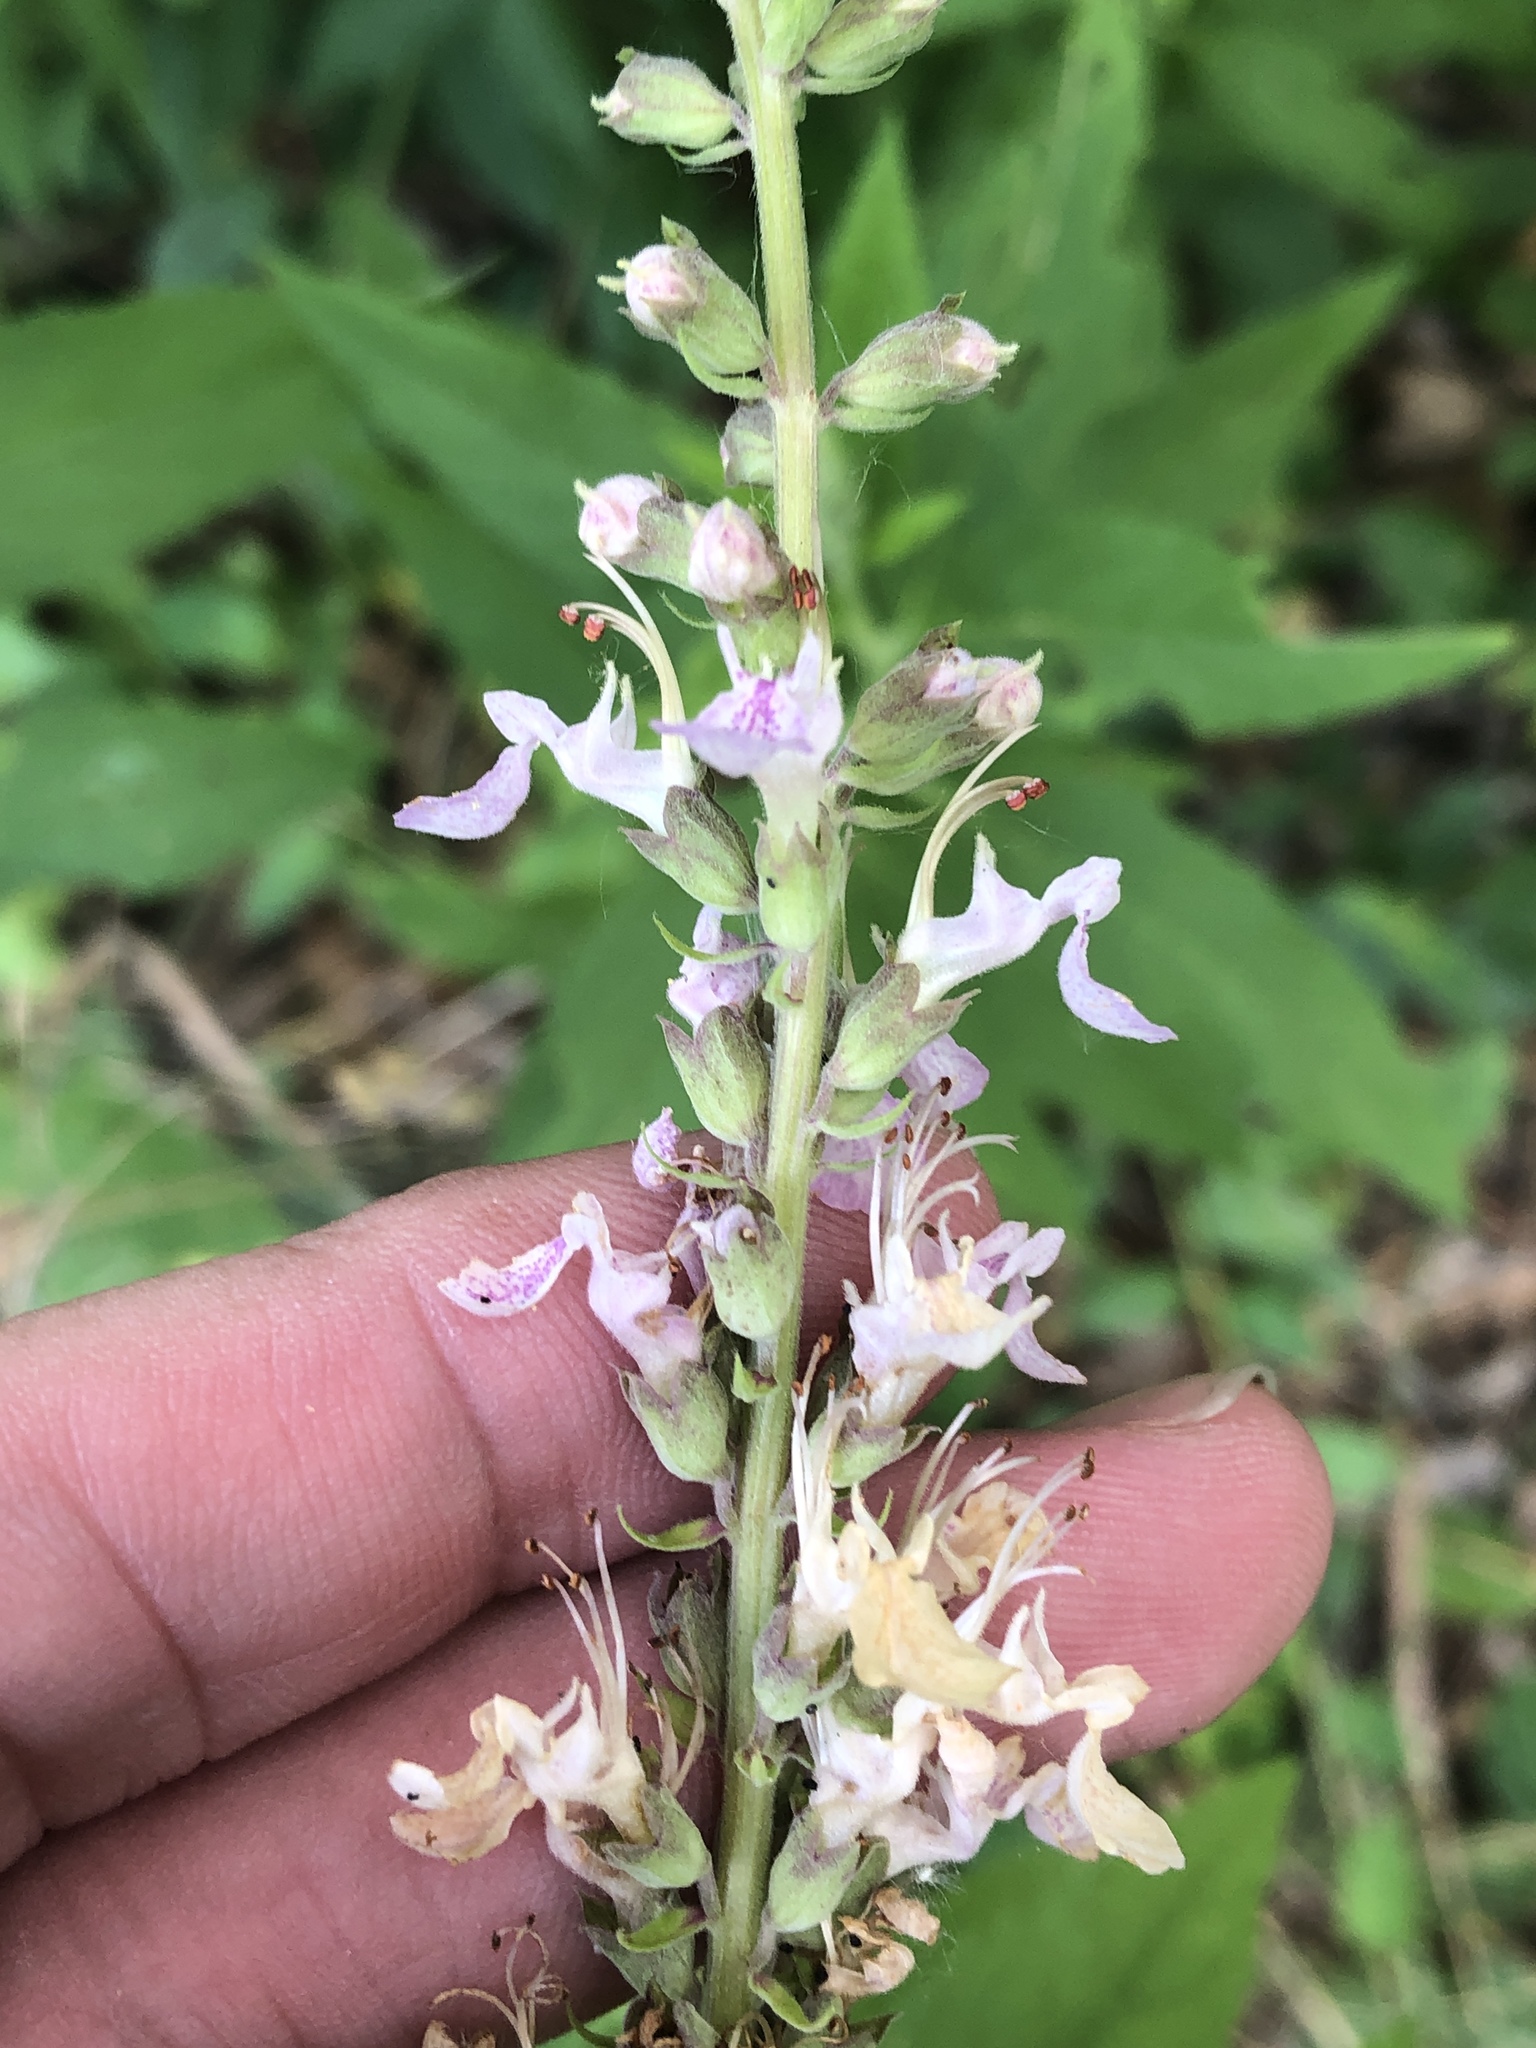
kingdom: Plantae
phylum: Tracheophyta
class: Magnoliopsida
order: Lamiales
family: Lamiaceae
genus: Teucrium
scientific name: Teucrium canadense
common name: American germander
